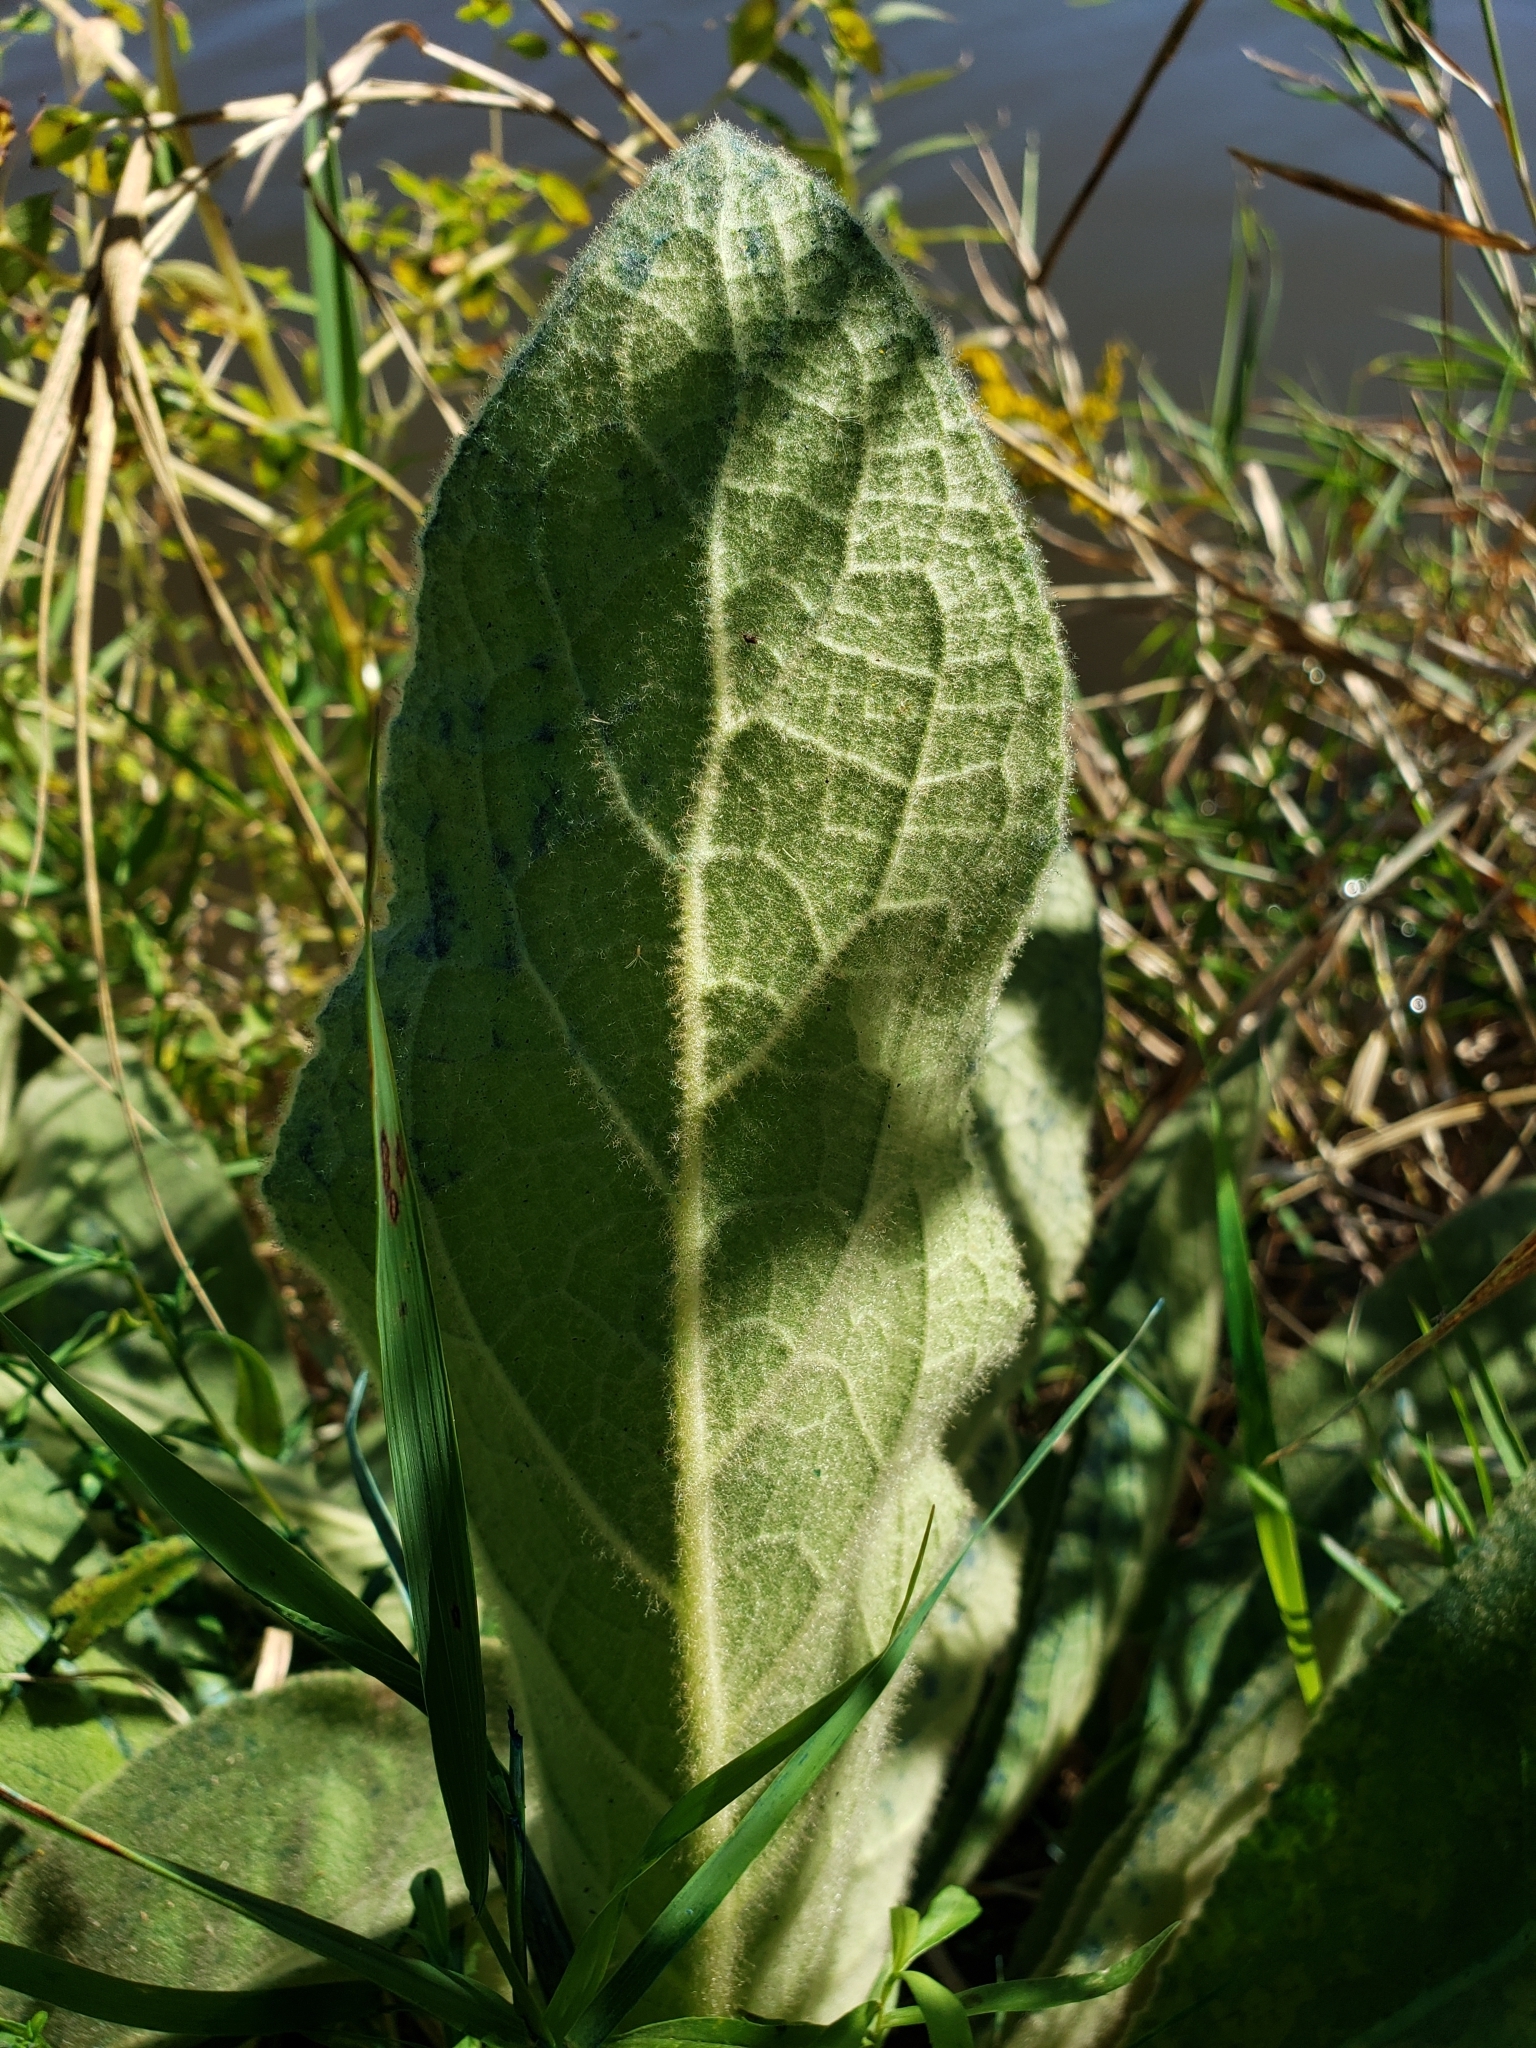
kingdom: Plantae
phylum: Tracheophyta
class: Magnoliopsida
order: Lamiales
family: Scrophulariaceae
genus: Verbascum
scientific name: Verbascum thapsus
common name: Common mullein
